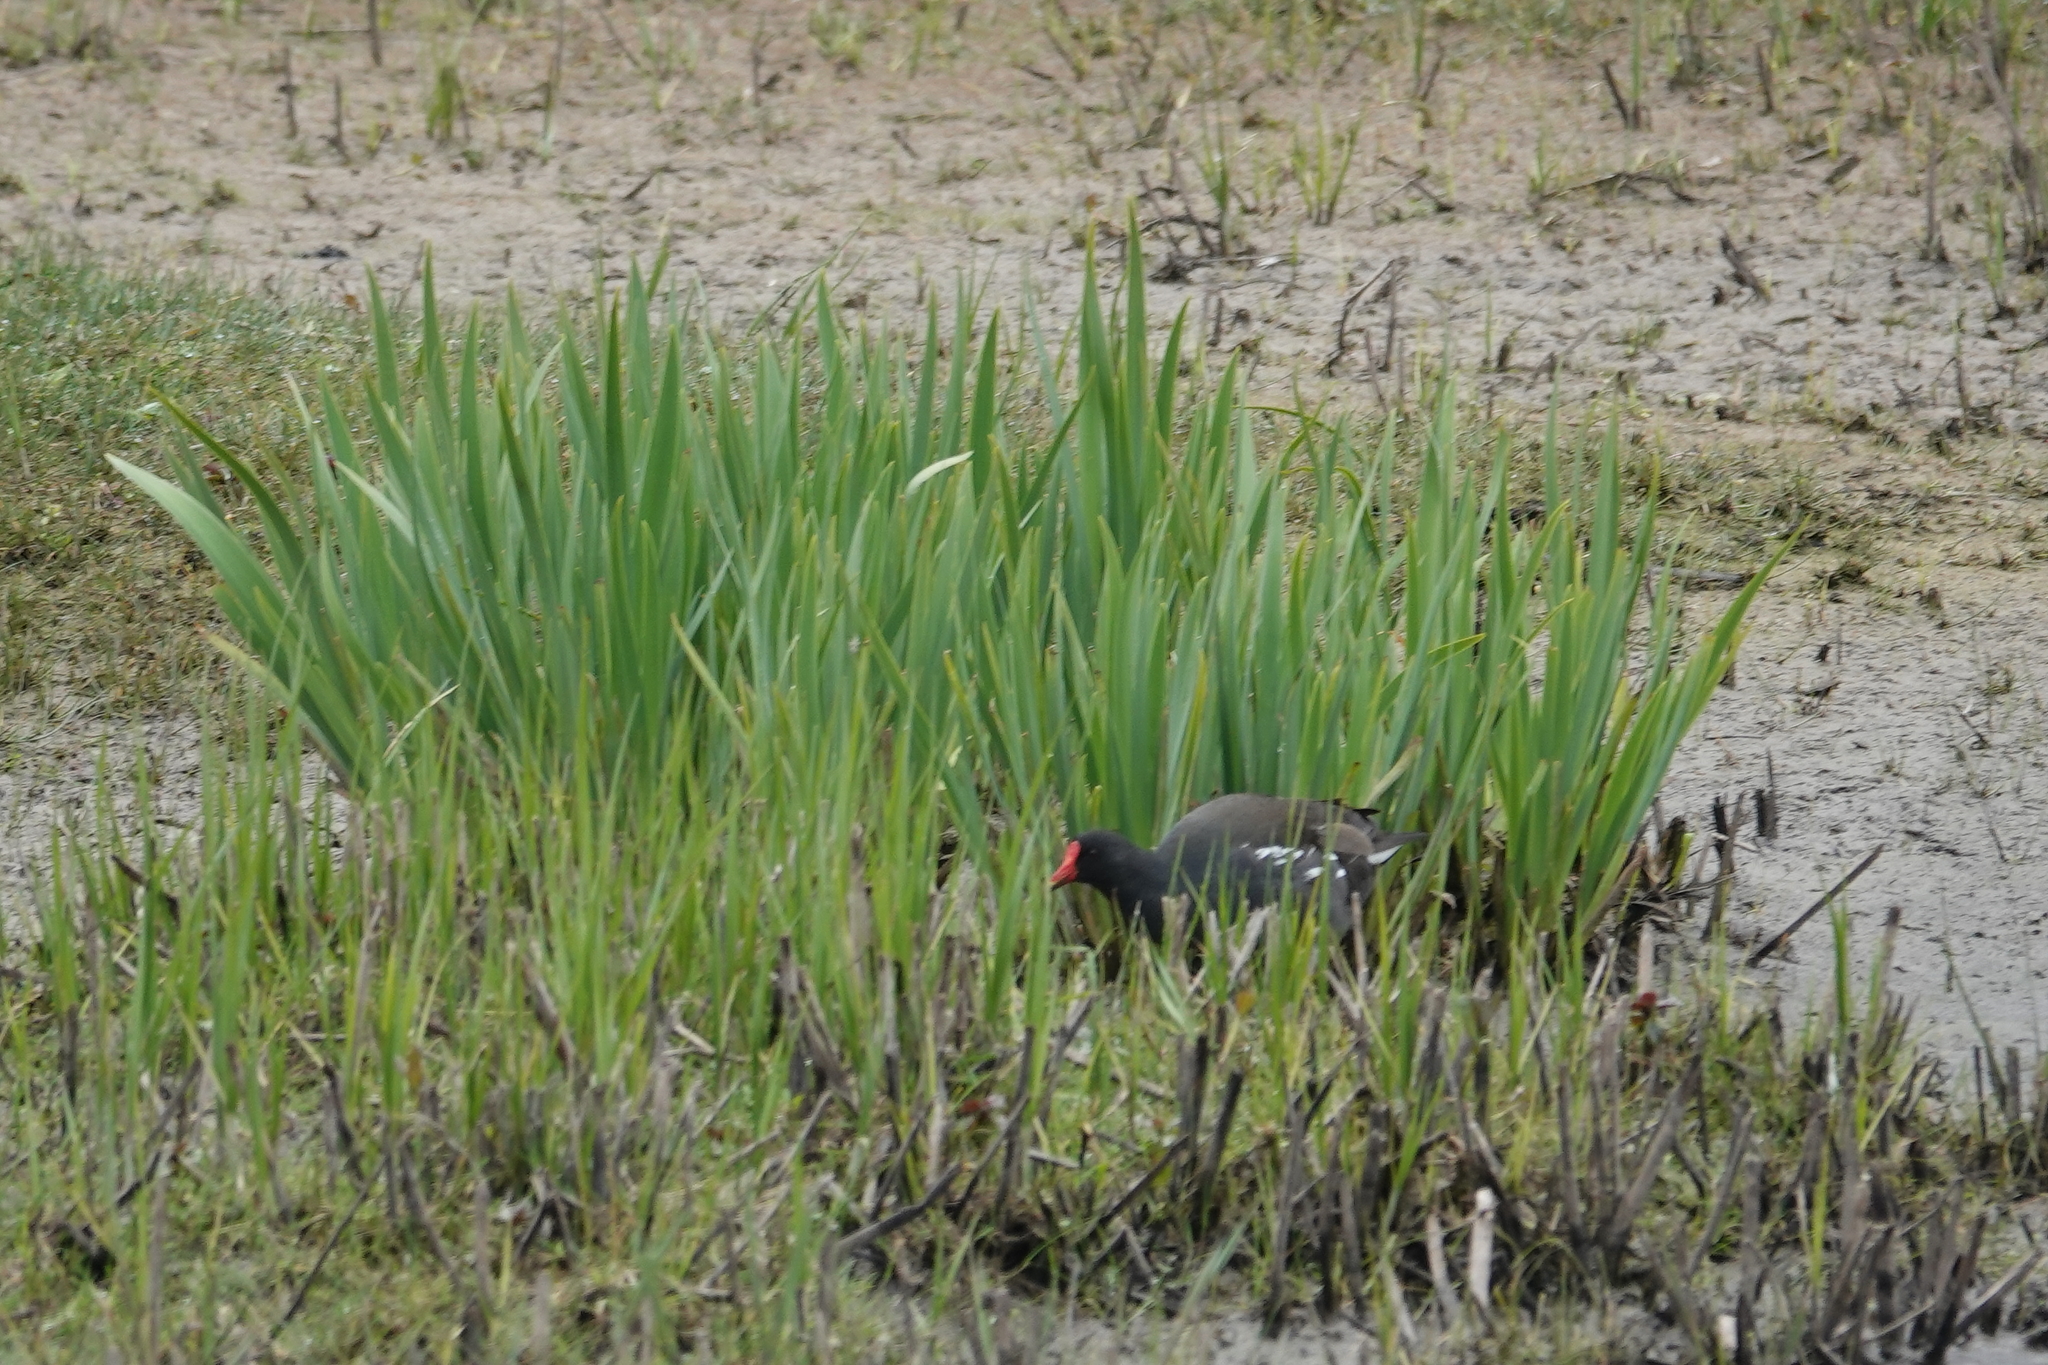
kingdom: Animalia
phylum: Chordata
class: Aves
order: Gruiformes
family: Rallidae
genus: Gallinula
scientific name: Gallinula chloropus
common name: Common moorhen
